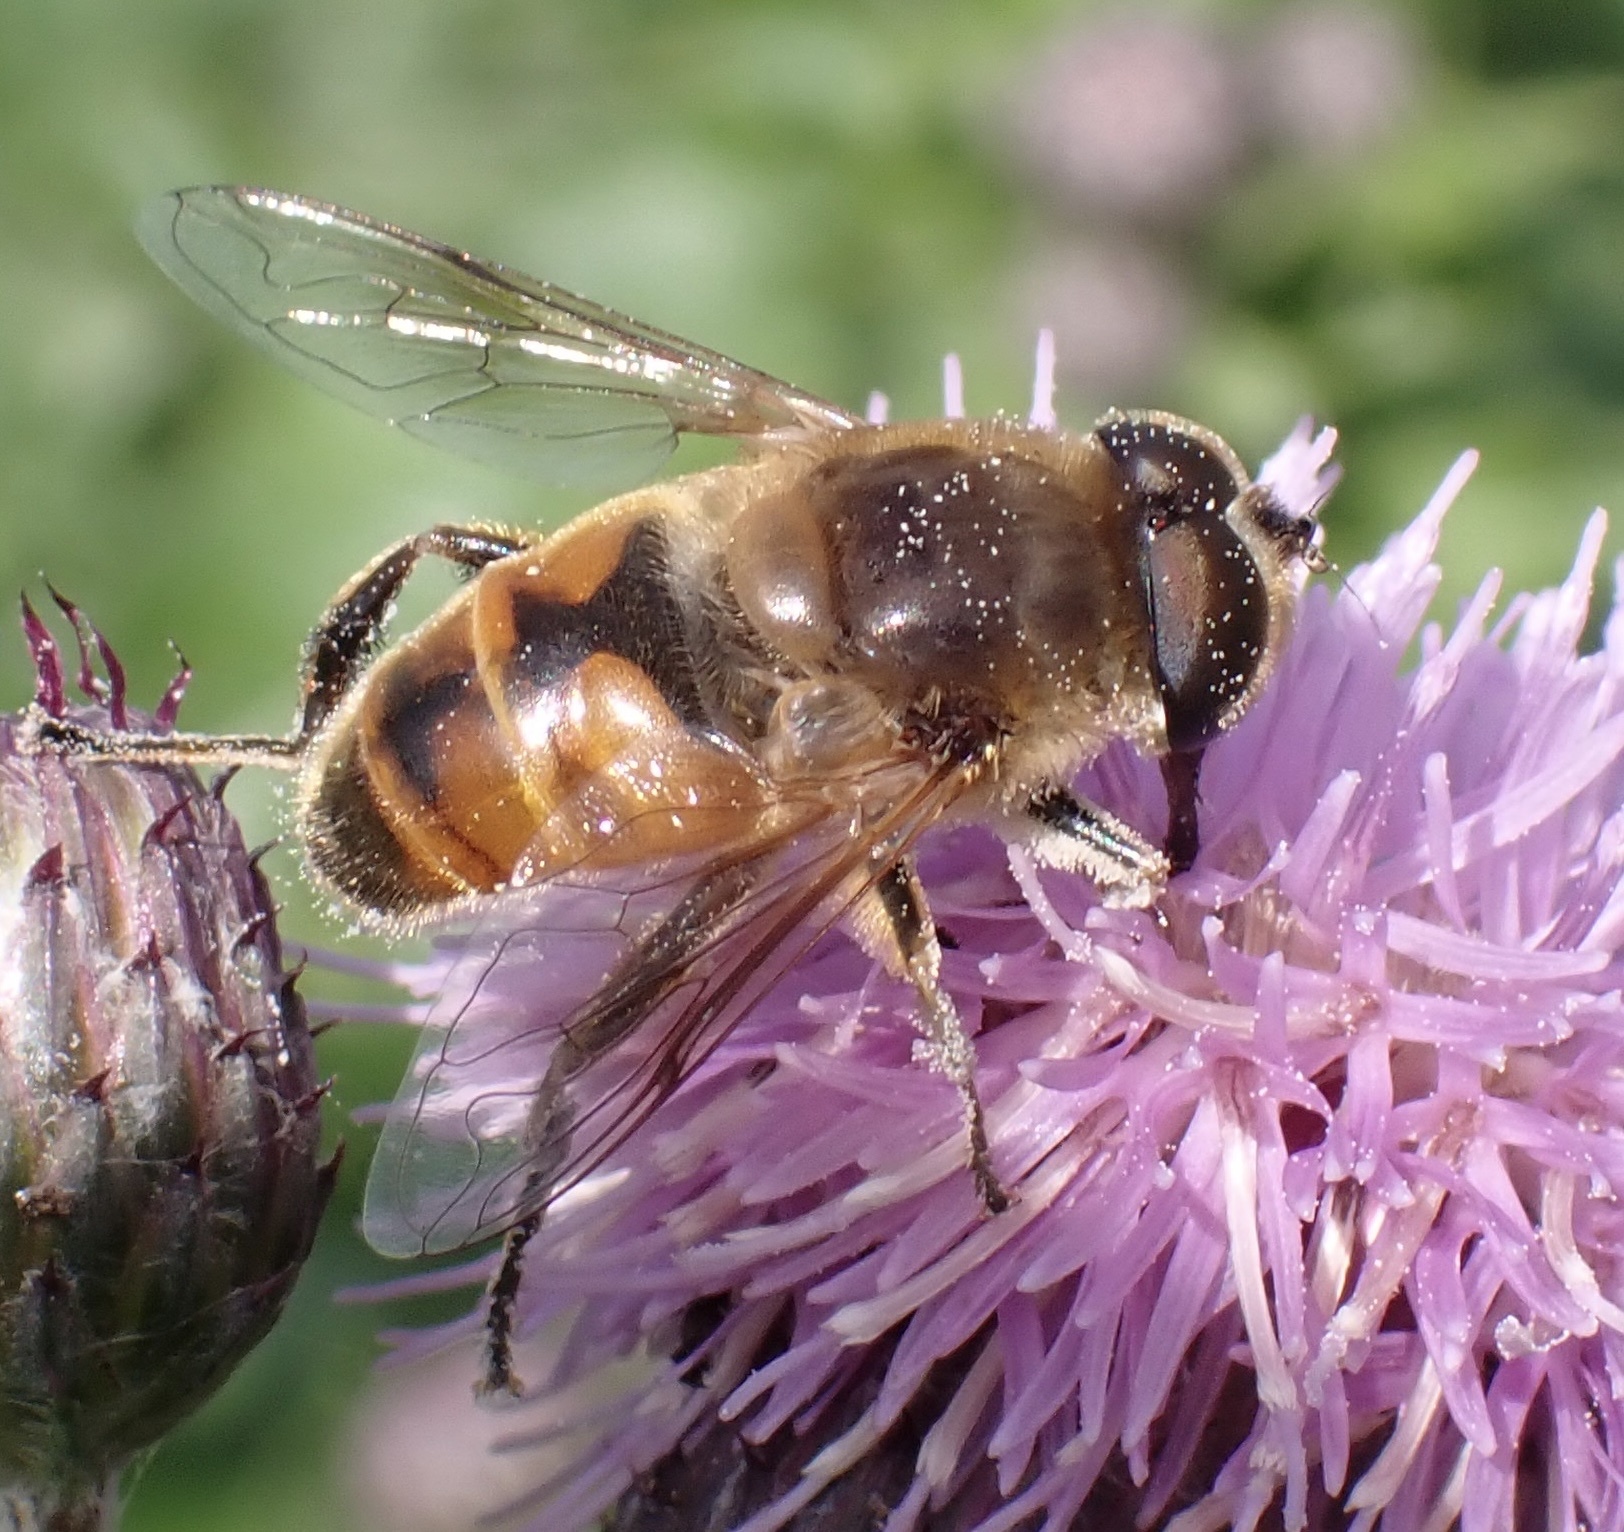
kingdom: Animalia
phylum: Arthropoda
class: Insecta
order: Diptera
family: Syrphidae
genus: Eristalis
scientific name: Eristalis tenax
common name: Drone fly
